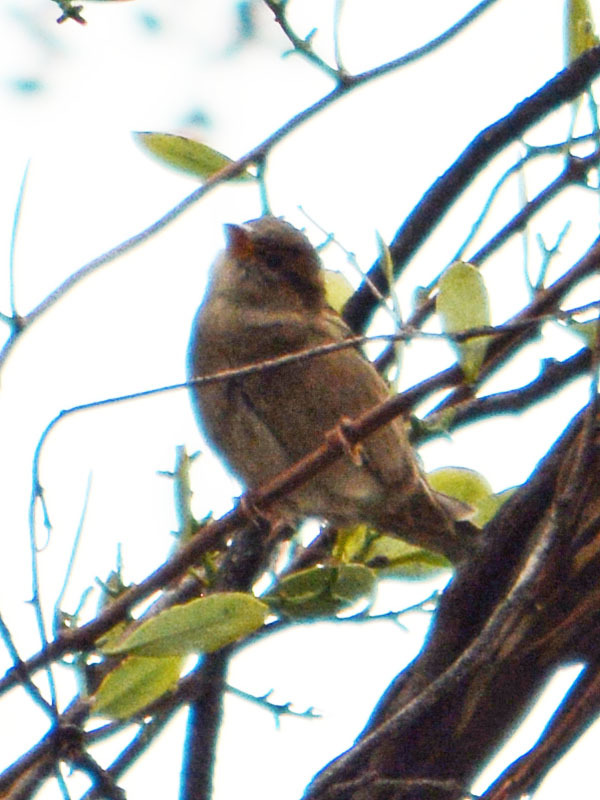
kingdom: Animalia
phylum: Chordata
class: Aves
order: Passeriformes
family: Passeridae
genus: Passer
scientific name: Passer domesticus
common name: House sparrow
